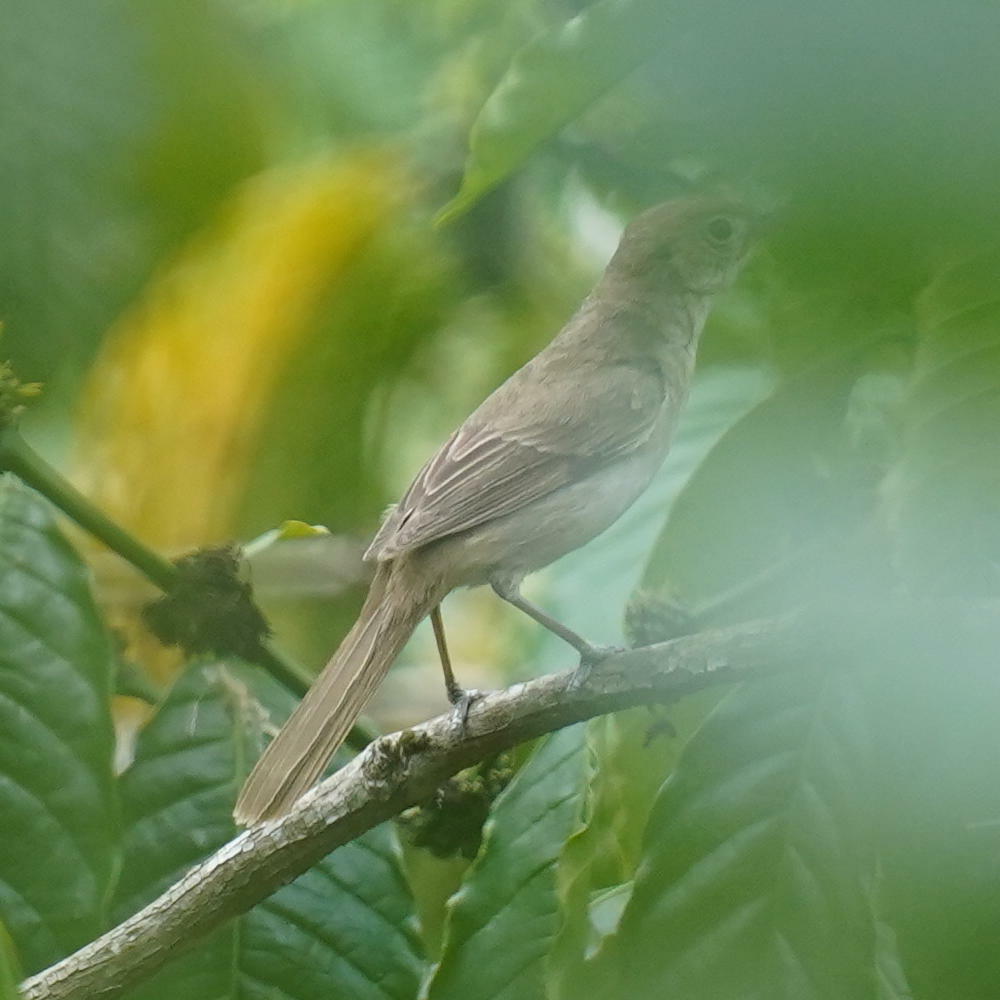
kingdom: Animalia
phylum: Chordata
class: Aves
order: Passeriformes
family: Acrocephalidae
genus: Iduna
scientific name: Iduna aedon
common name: Thick-billed warbler
